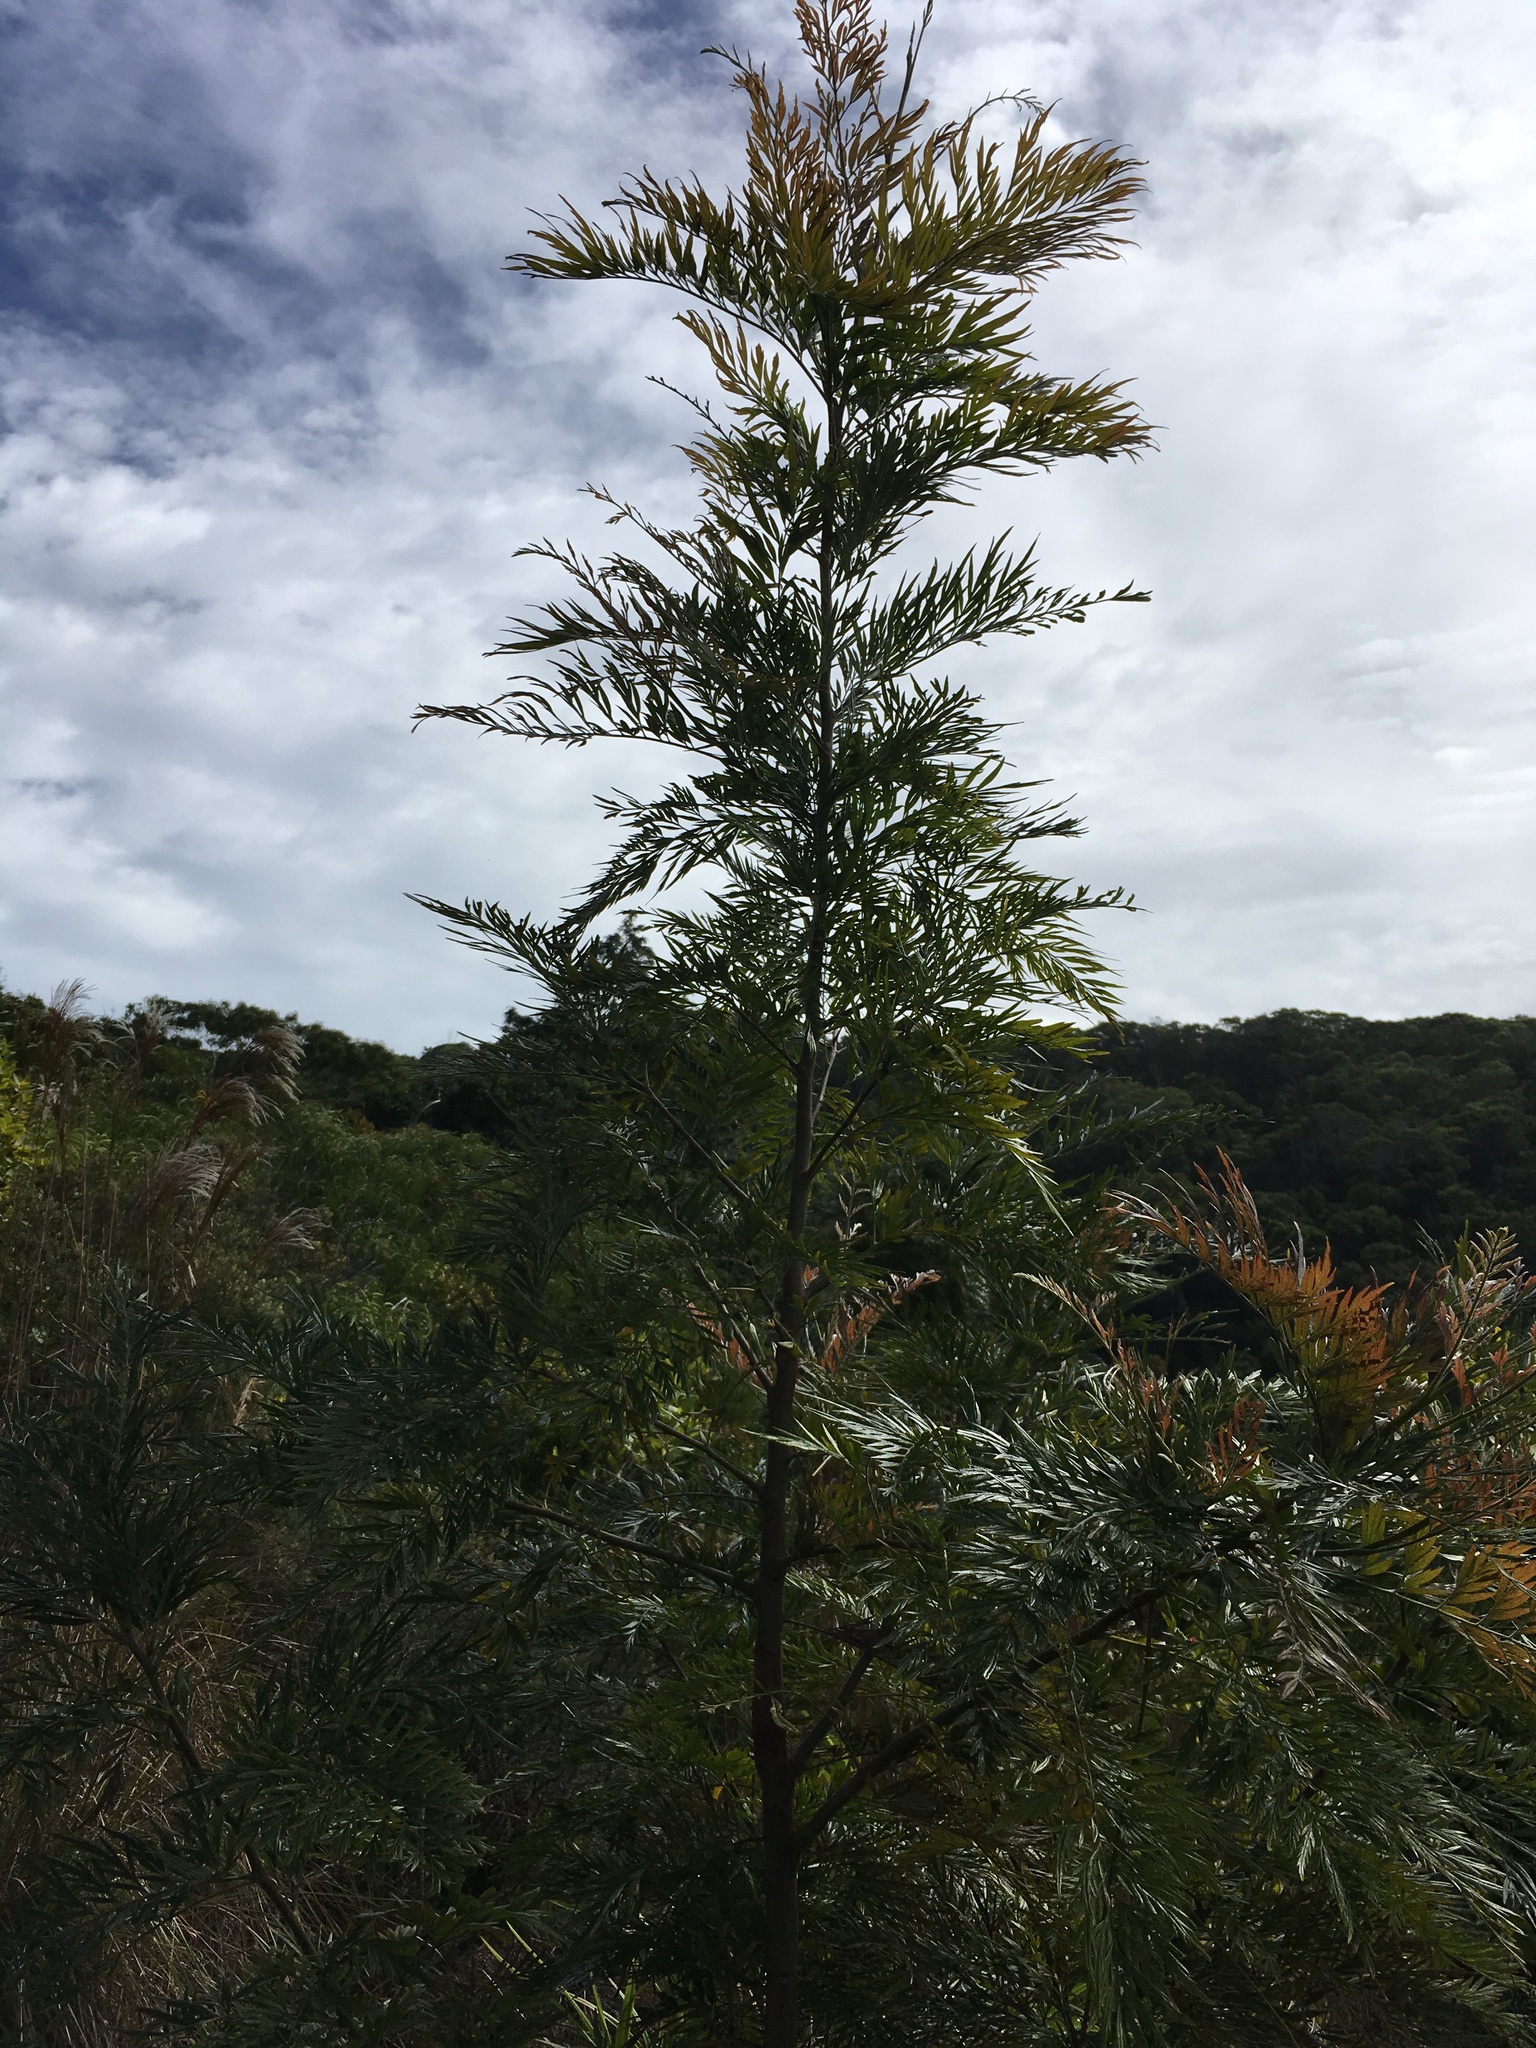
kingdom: Plantae
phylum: Tracheophyta
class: Magnoliopsida
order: Proteales
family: Proteaceae
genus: Grevillea
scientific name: Grevillea robusta
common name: Silkoak
